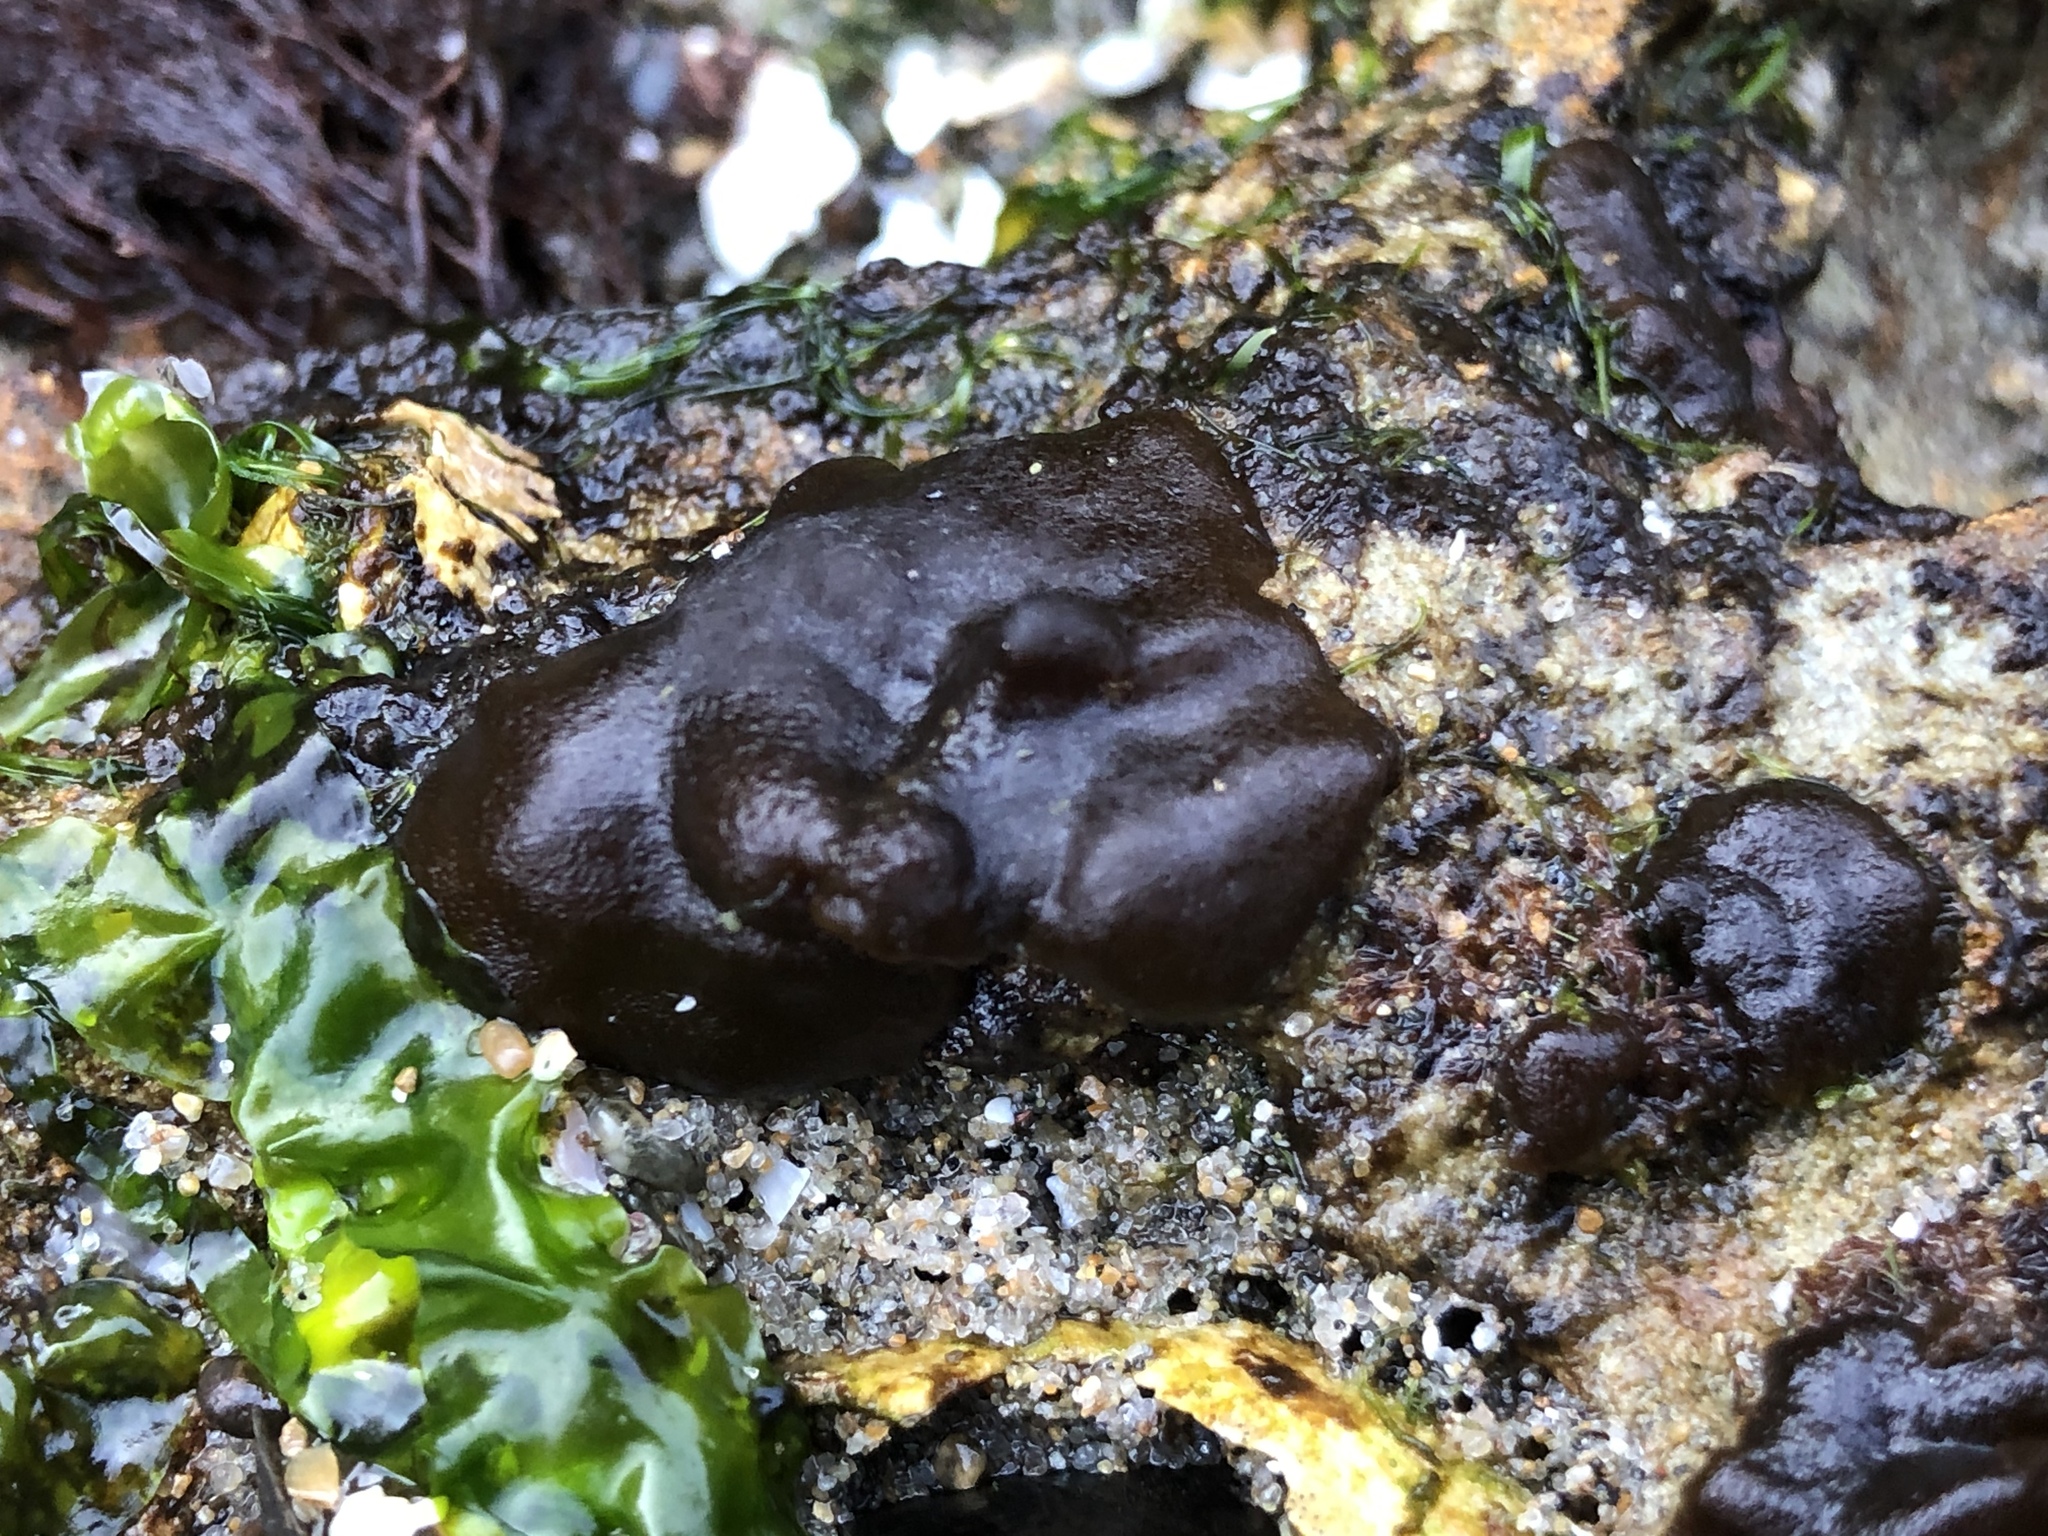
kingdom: Chromista
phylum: Ochrophyta
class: Phaeophyceae
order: Ectocarpales
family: Petrospongiaceae
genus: Petrospongium
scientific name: Petrospongium rugosum
